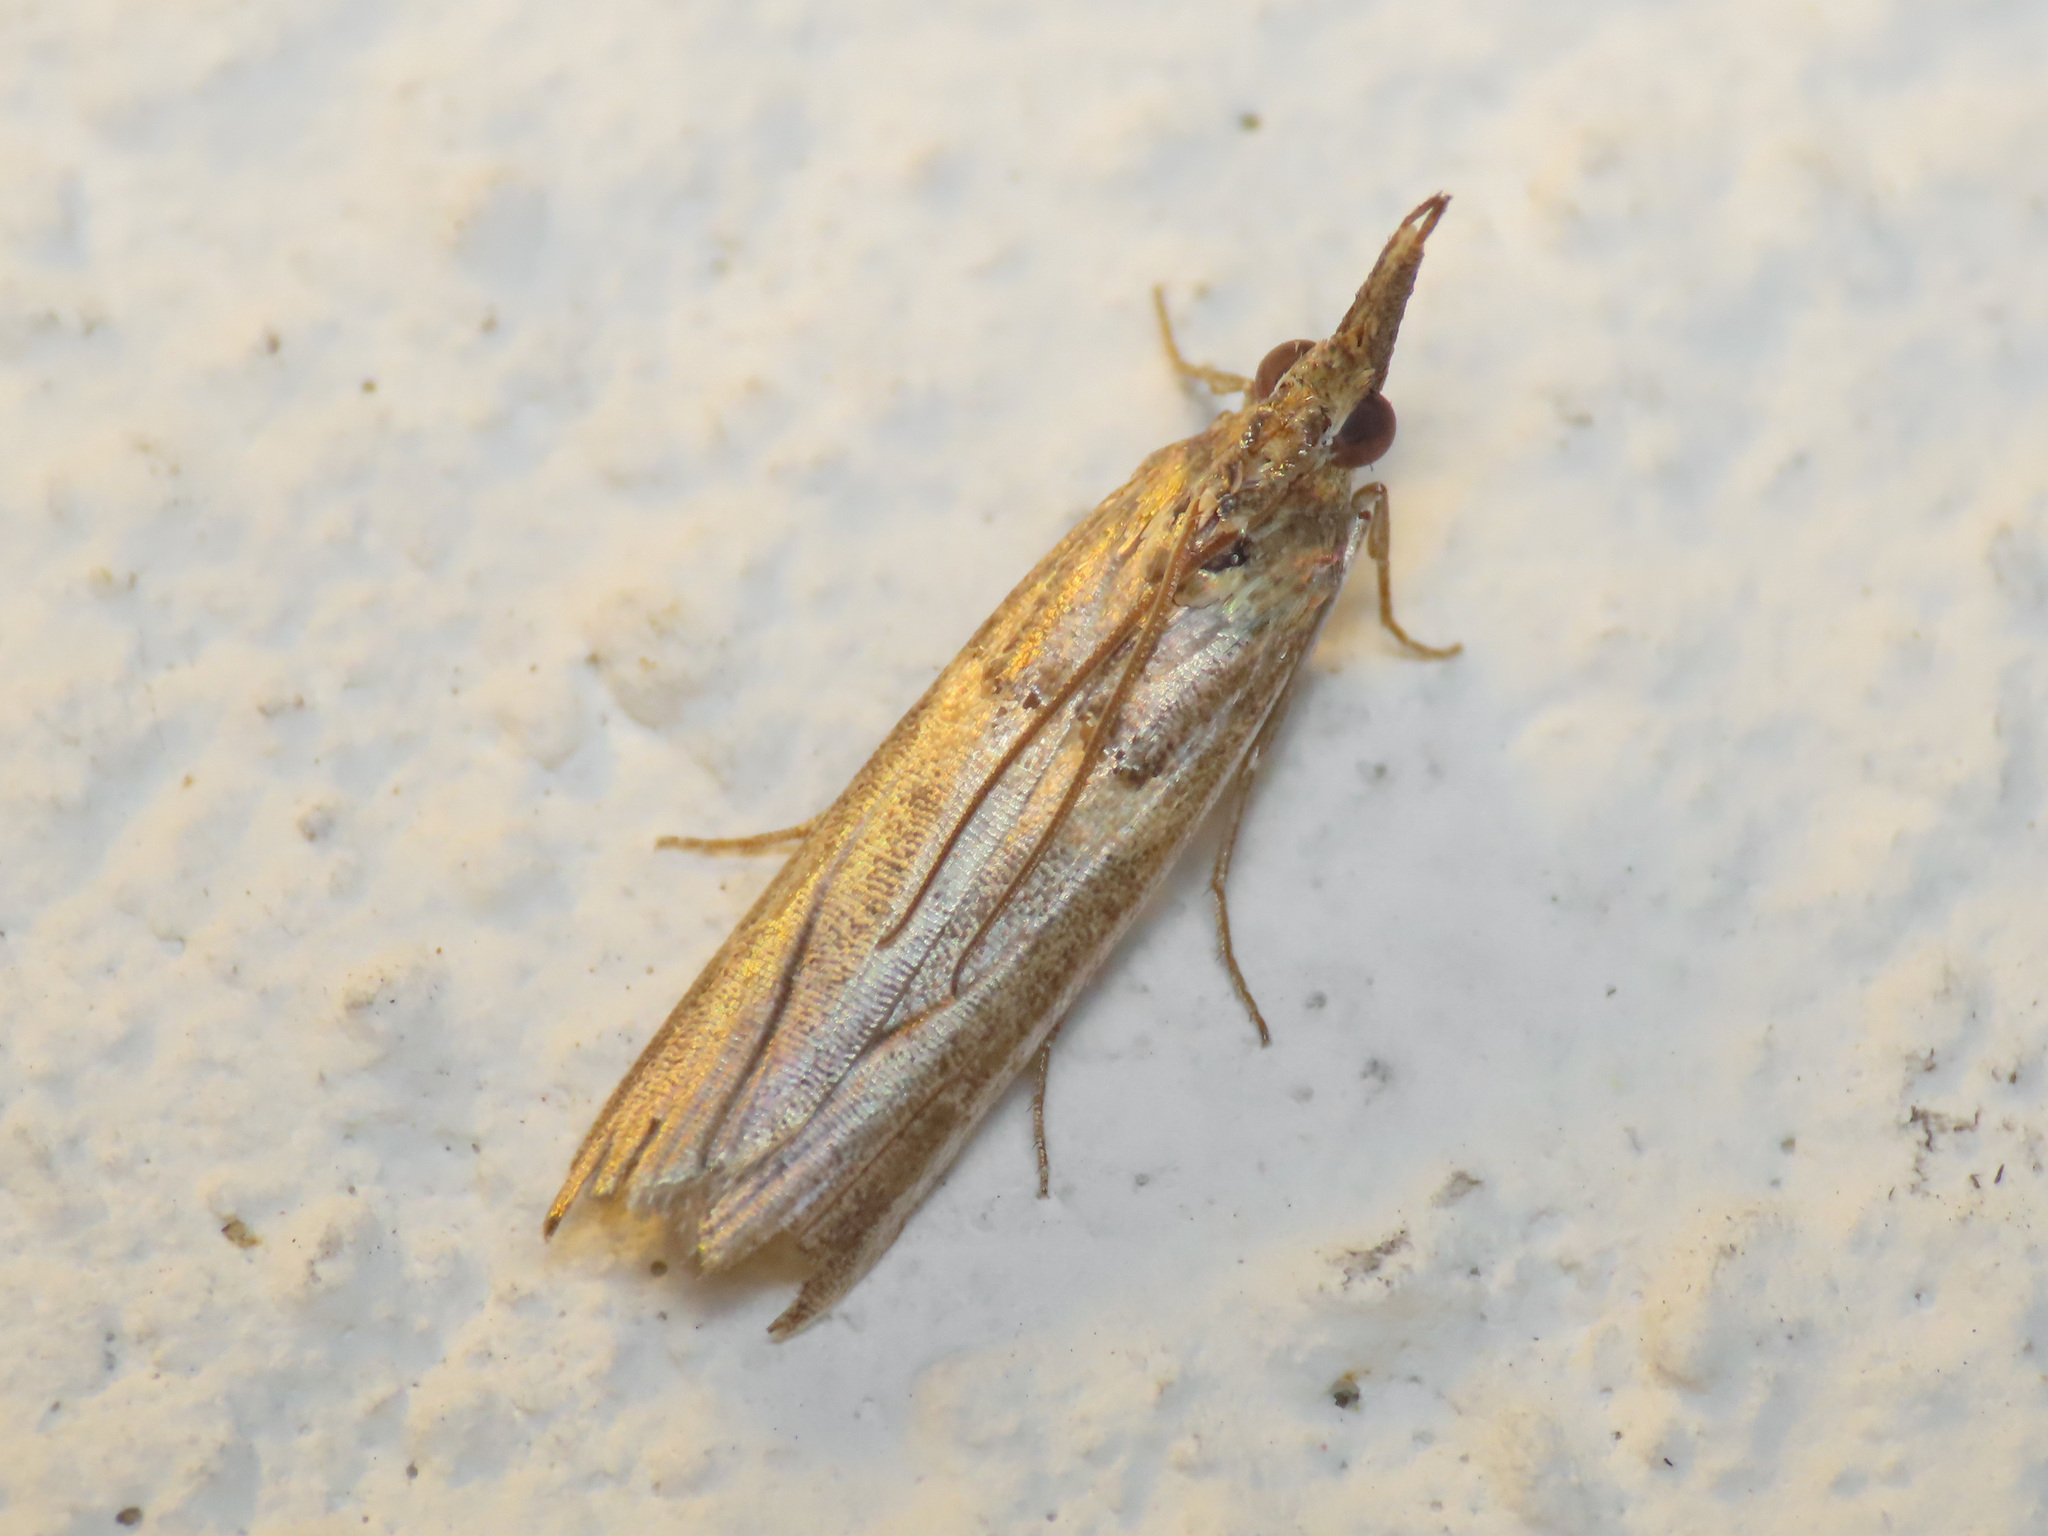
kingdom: Animalia
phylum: Arthropoda
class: Insecta
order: Lepidoptera
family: Pyralidae
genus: Etiella
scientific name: Etiella zinckenella
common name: Gold-banded etiella moth
